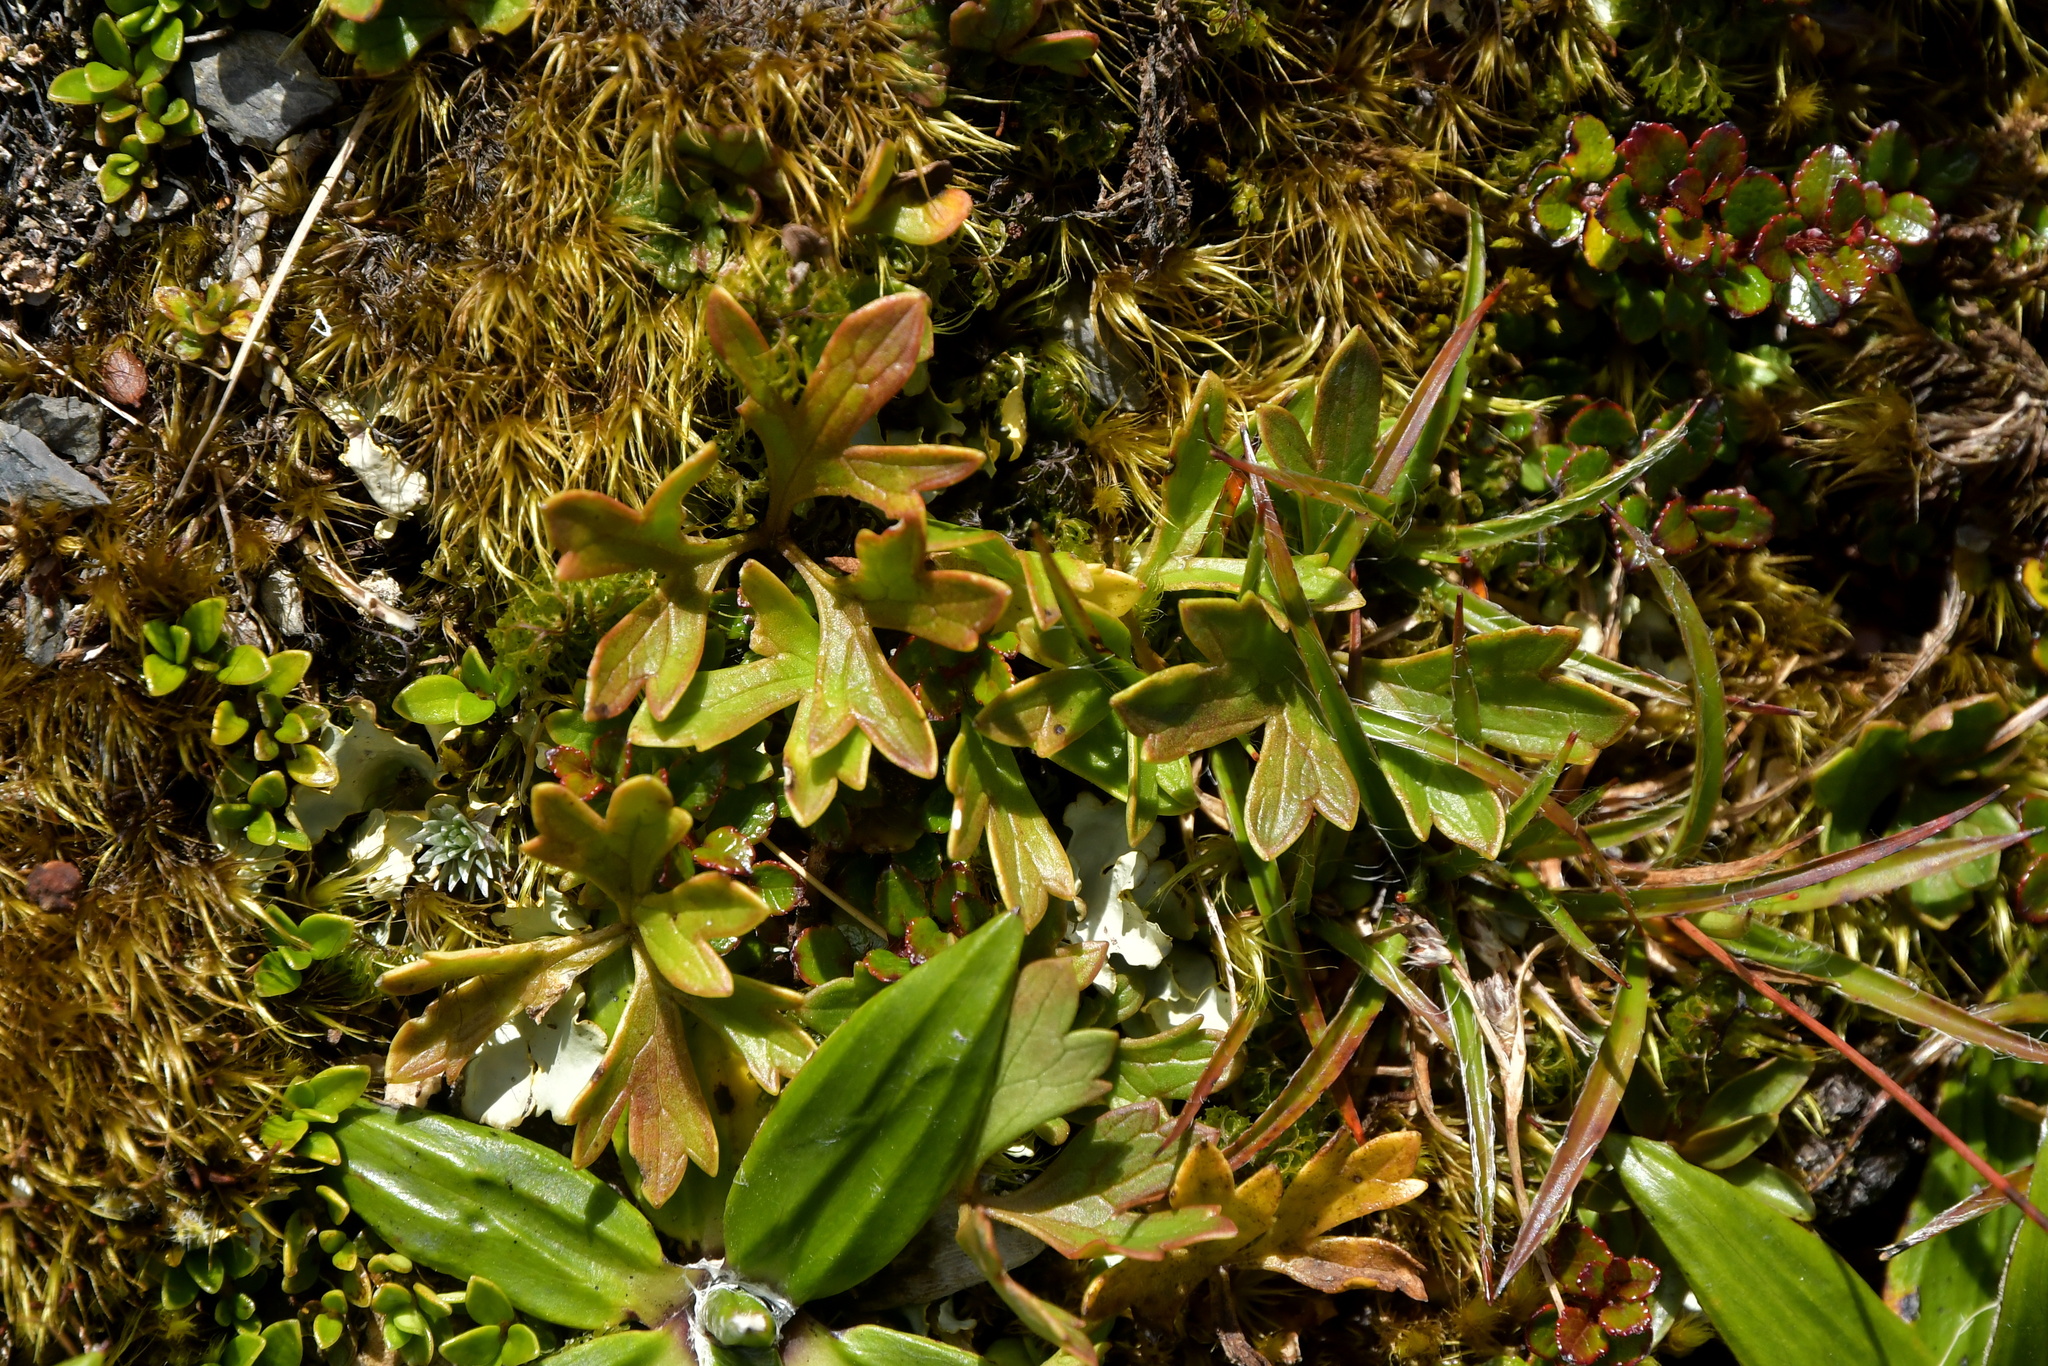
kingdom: Plantae
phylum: Tracheophyta
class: Magnoliopsida
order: Ranunculales
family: Ranunculaceae
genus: Ranunculus
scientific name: Ranunculus verticillatus
